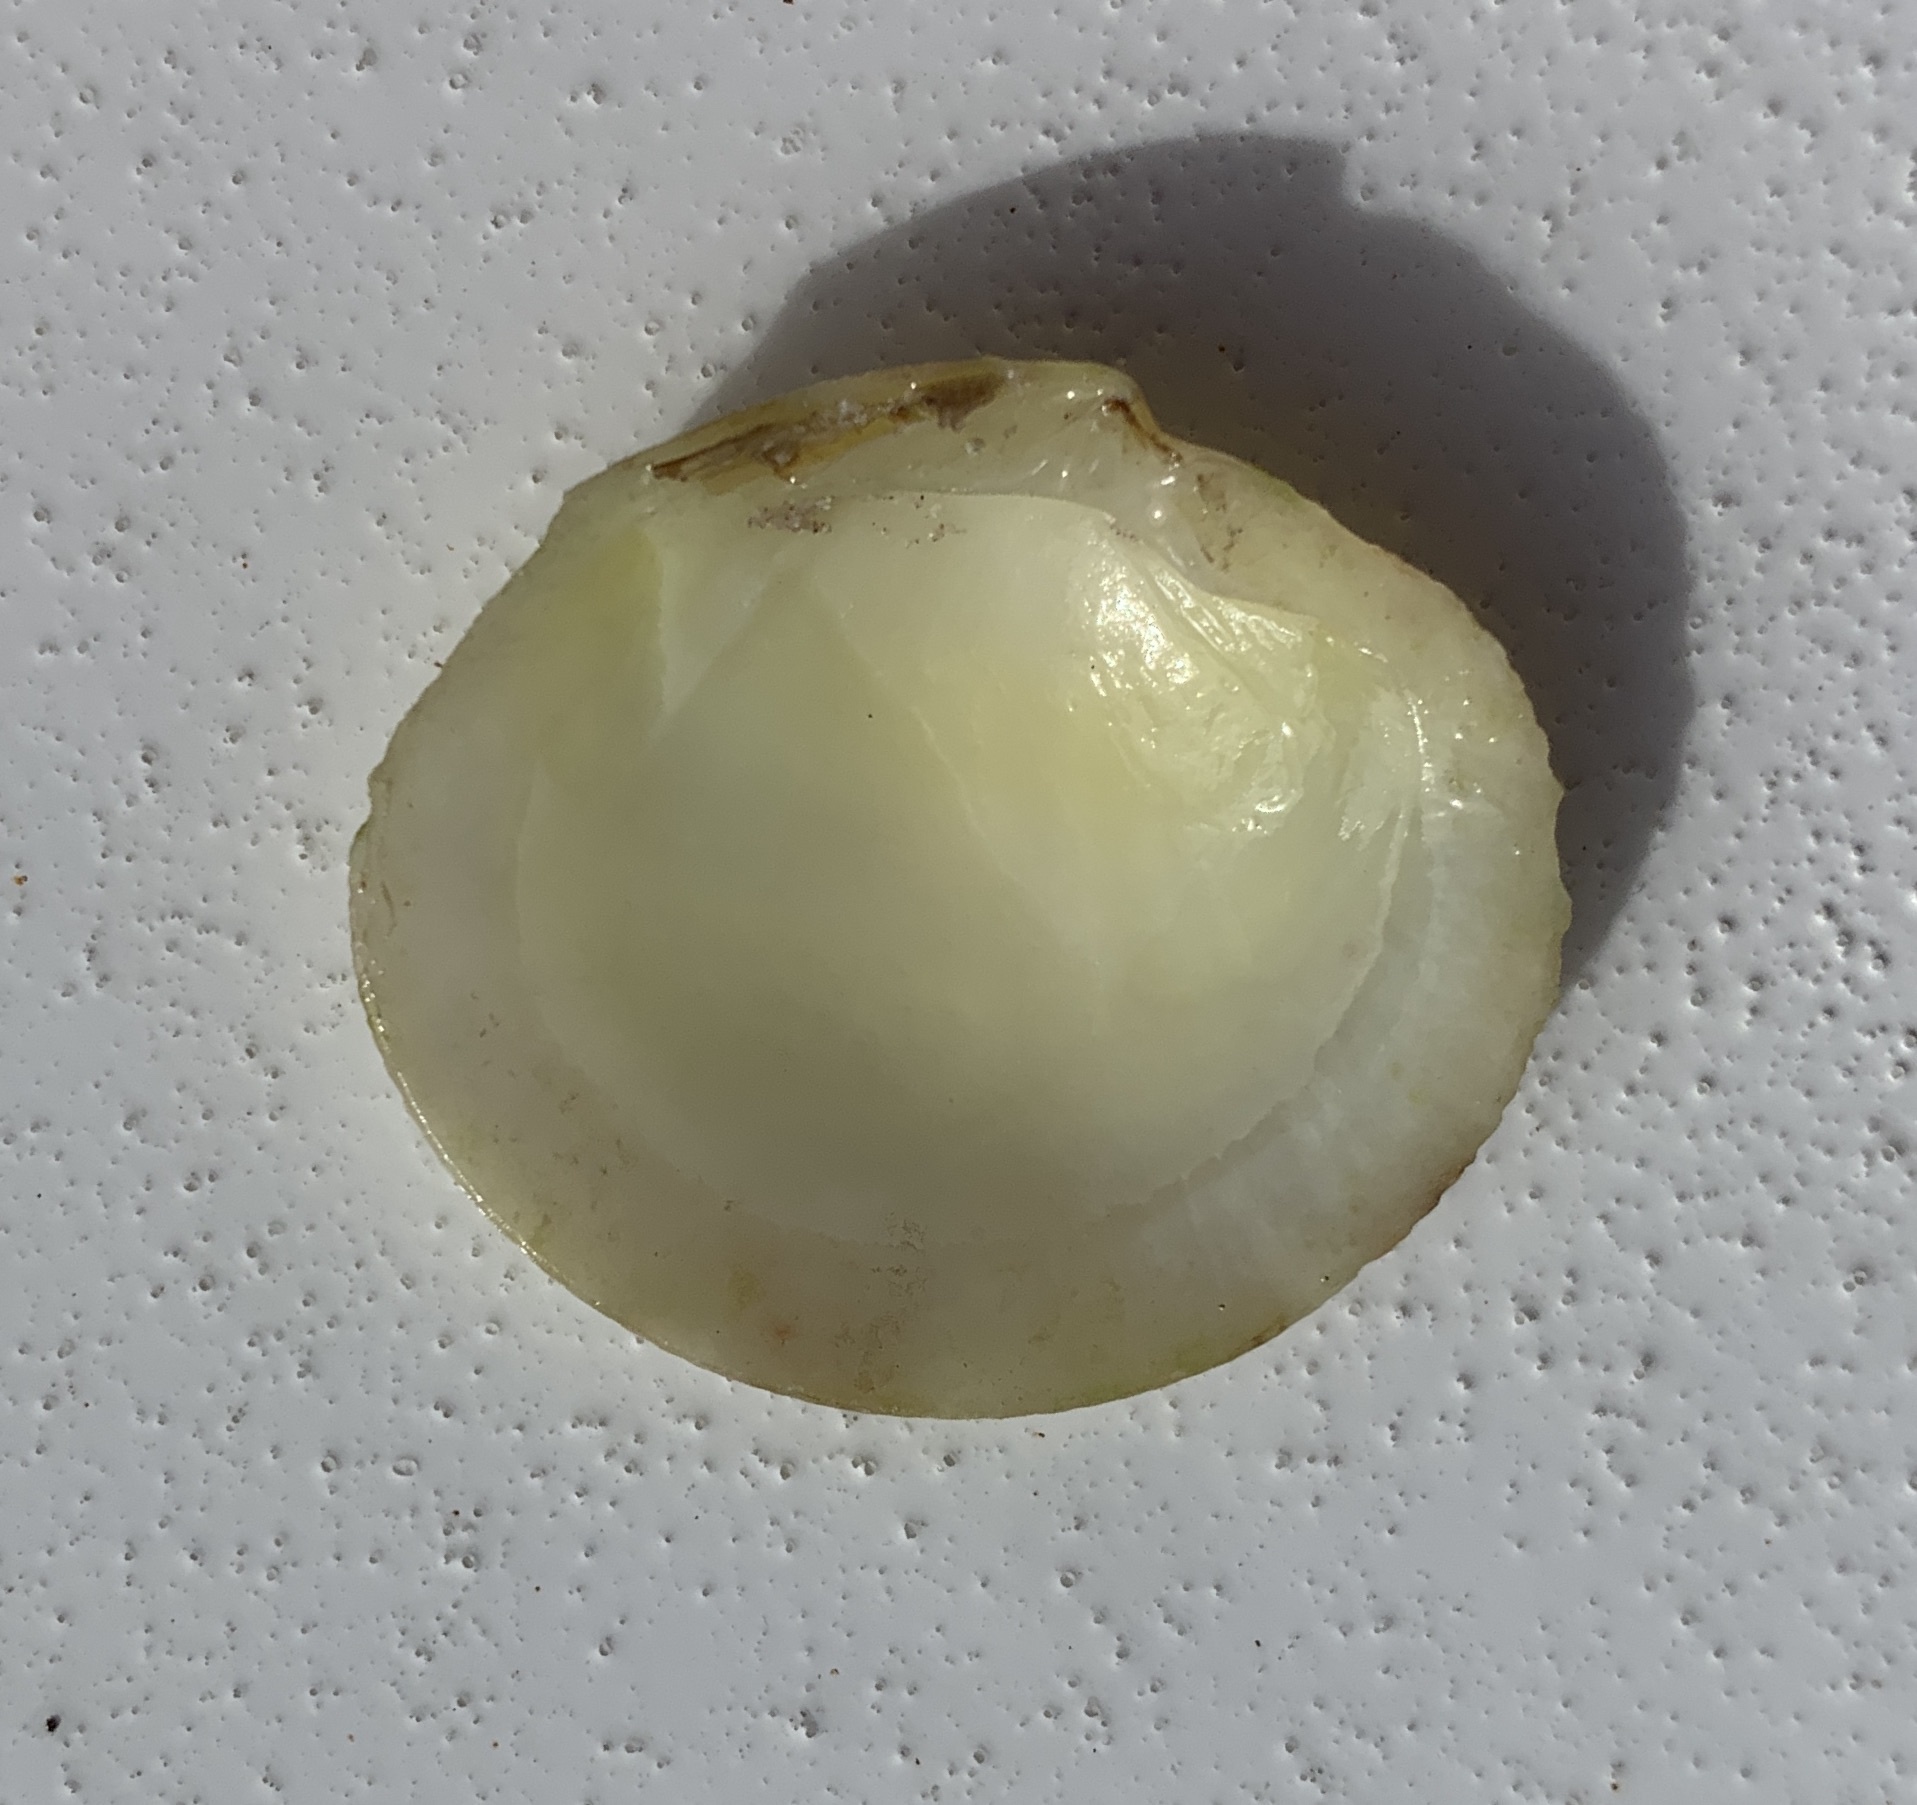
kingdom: Animalia
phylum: Mollusca
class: Bivalvia
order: Lucinida
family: Lucinidae
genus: Codakia
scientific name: Codakia orbicularis
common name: Tiger lucine
